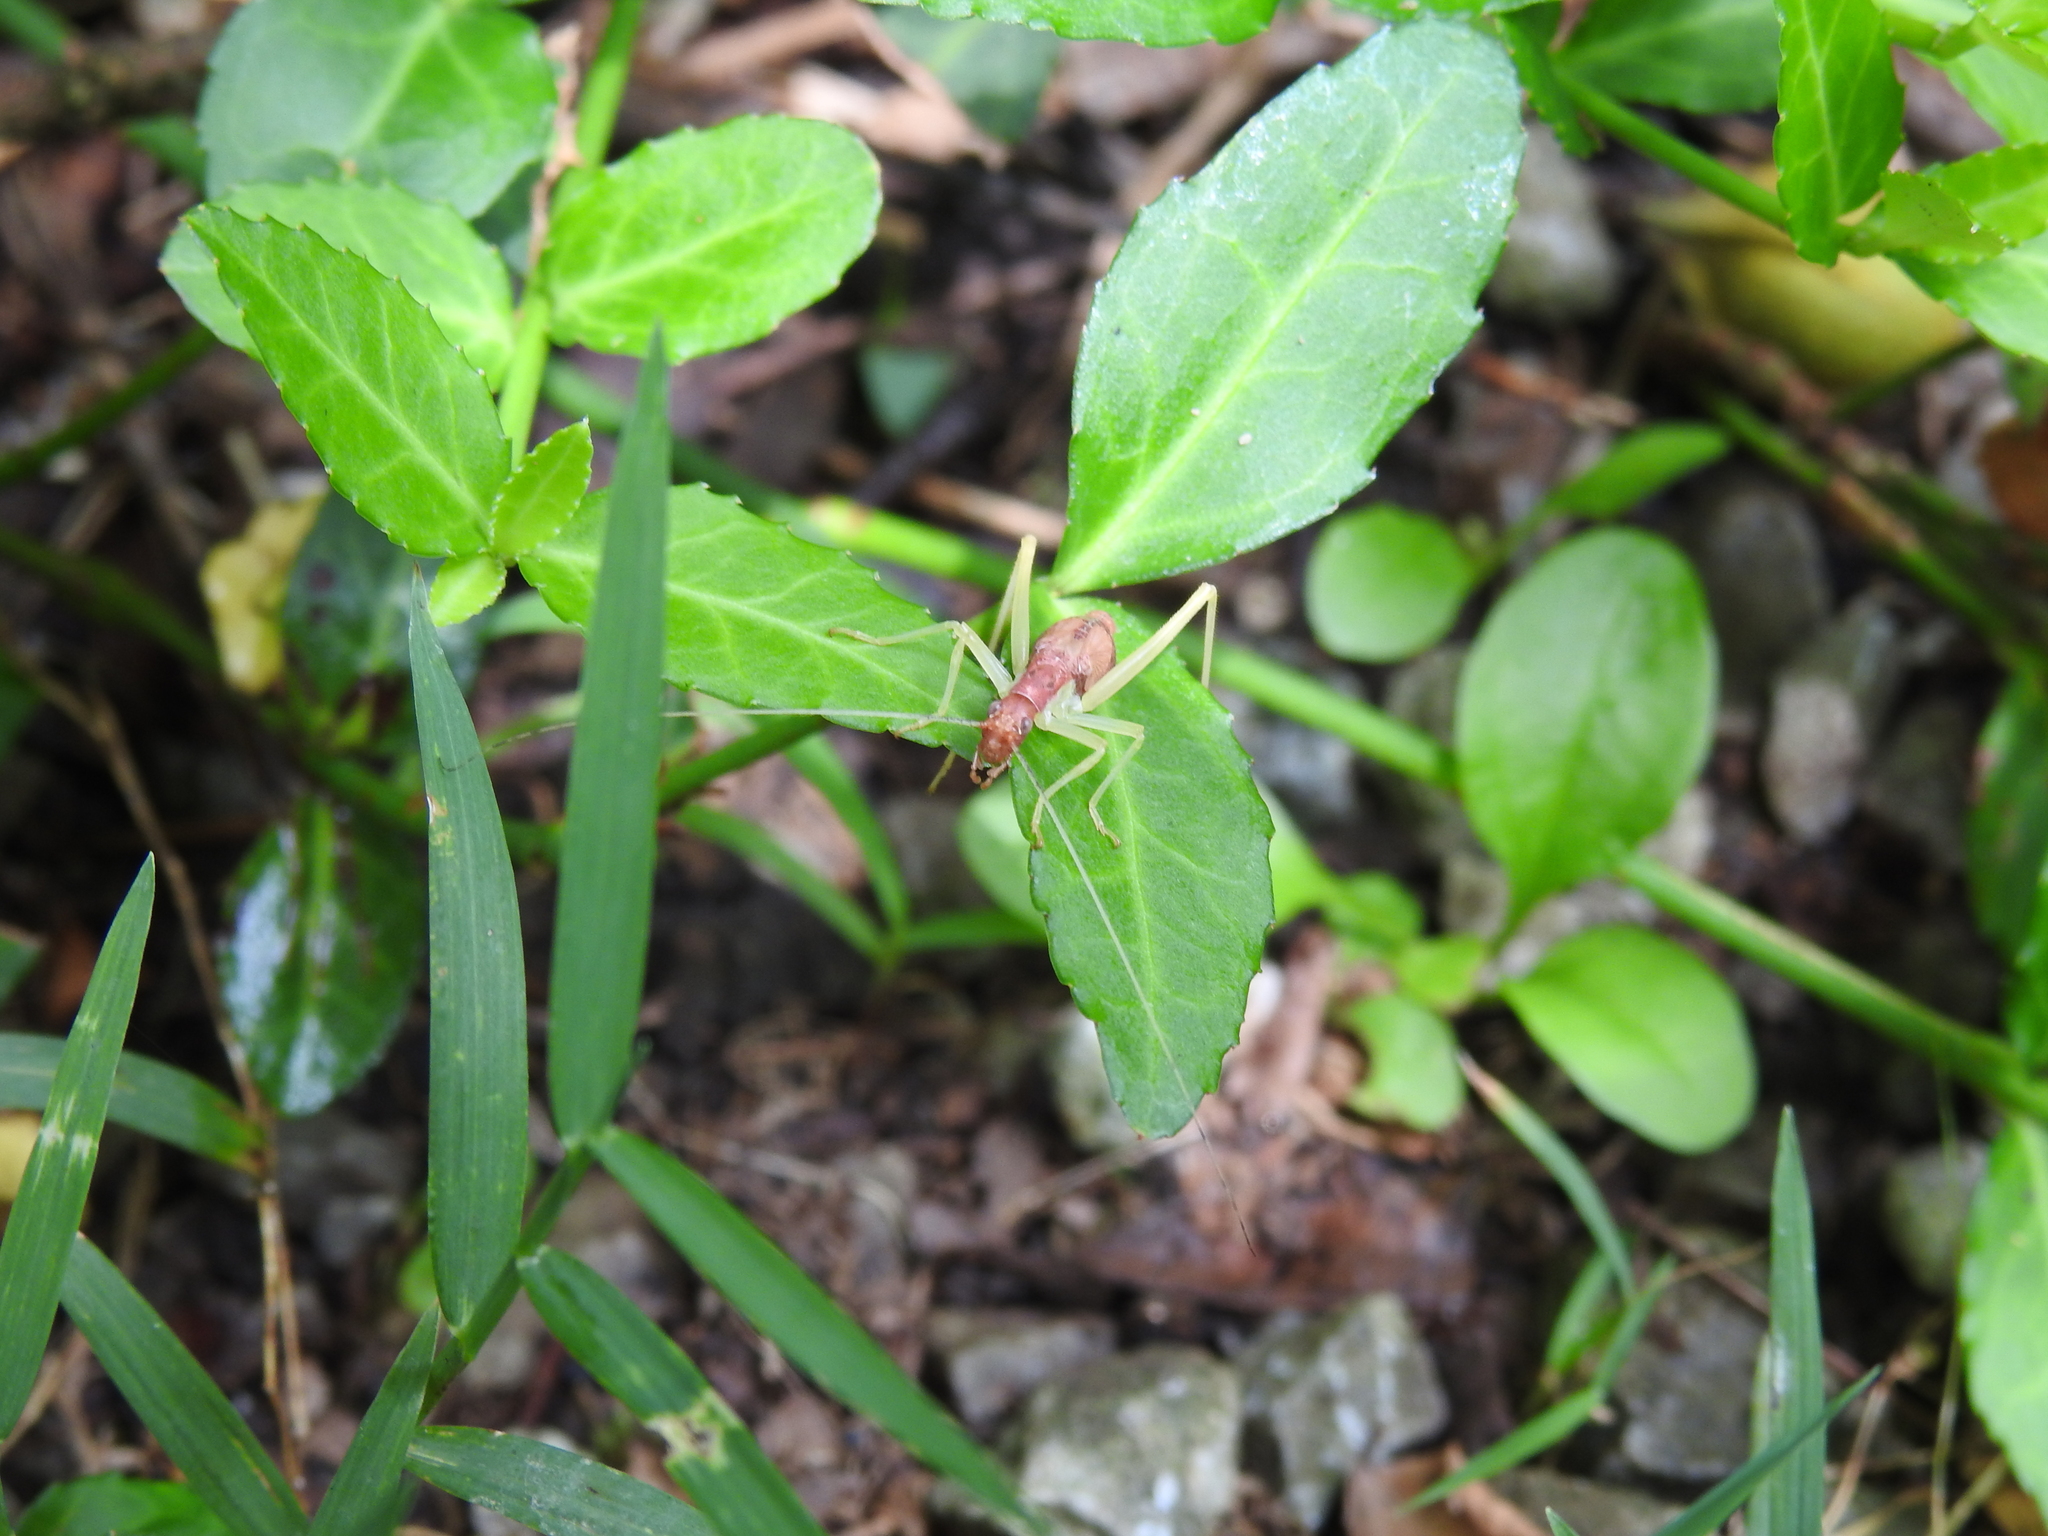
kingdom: Animalia
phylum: Arthropoda
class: Insecta
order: Orthoptera
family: Gryllidae
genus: Neoxabea
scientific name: Neoxabea bipunctata
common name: Two-spotted tree cricket
